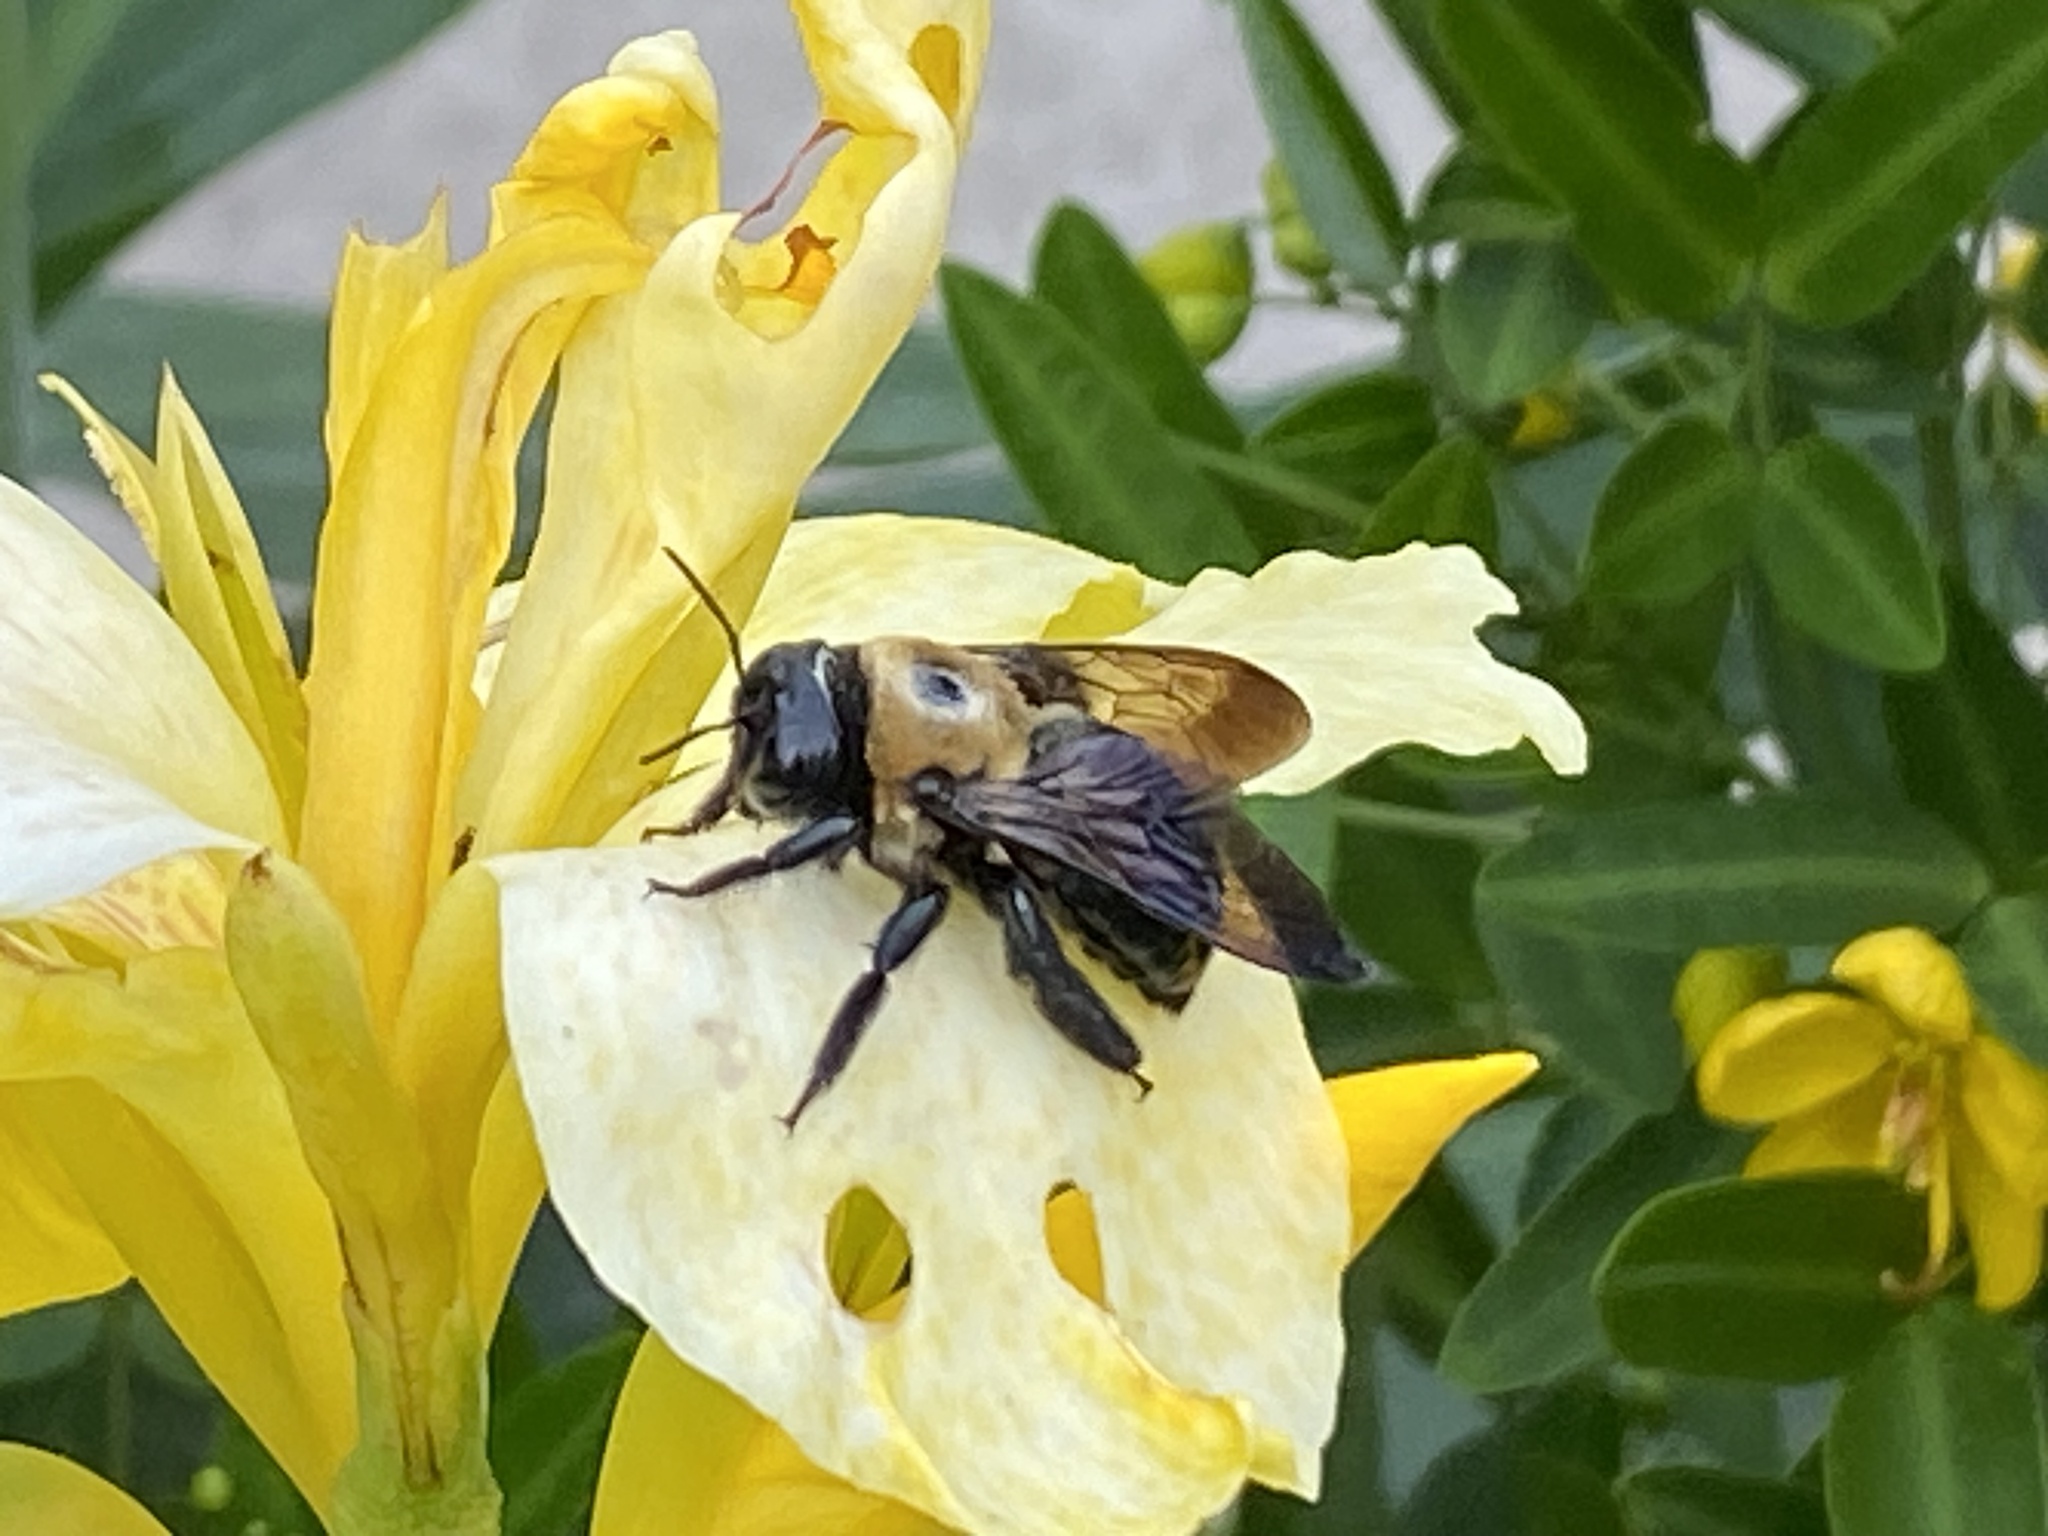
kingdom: Animalia
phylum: Arthropoda
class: Insecta
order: Hymenoptera
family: Apidae
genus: Xylocopa
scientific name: Xylocopa virginica
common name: Carpenter bee
